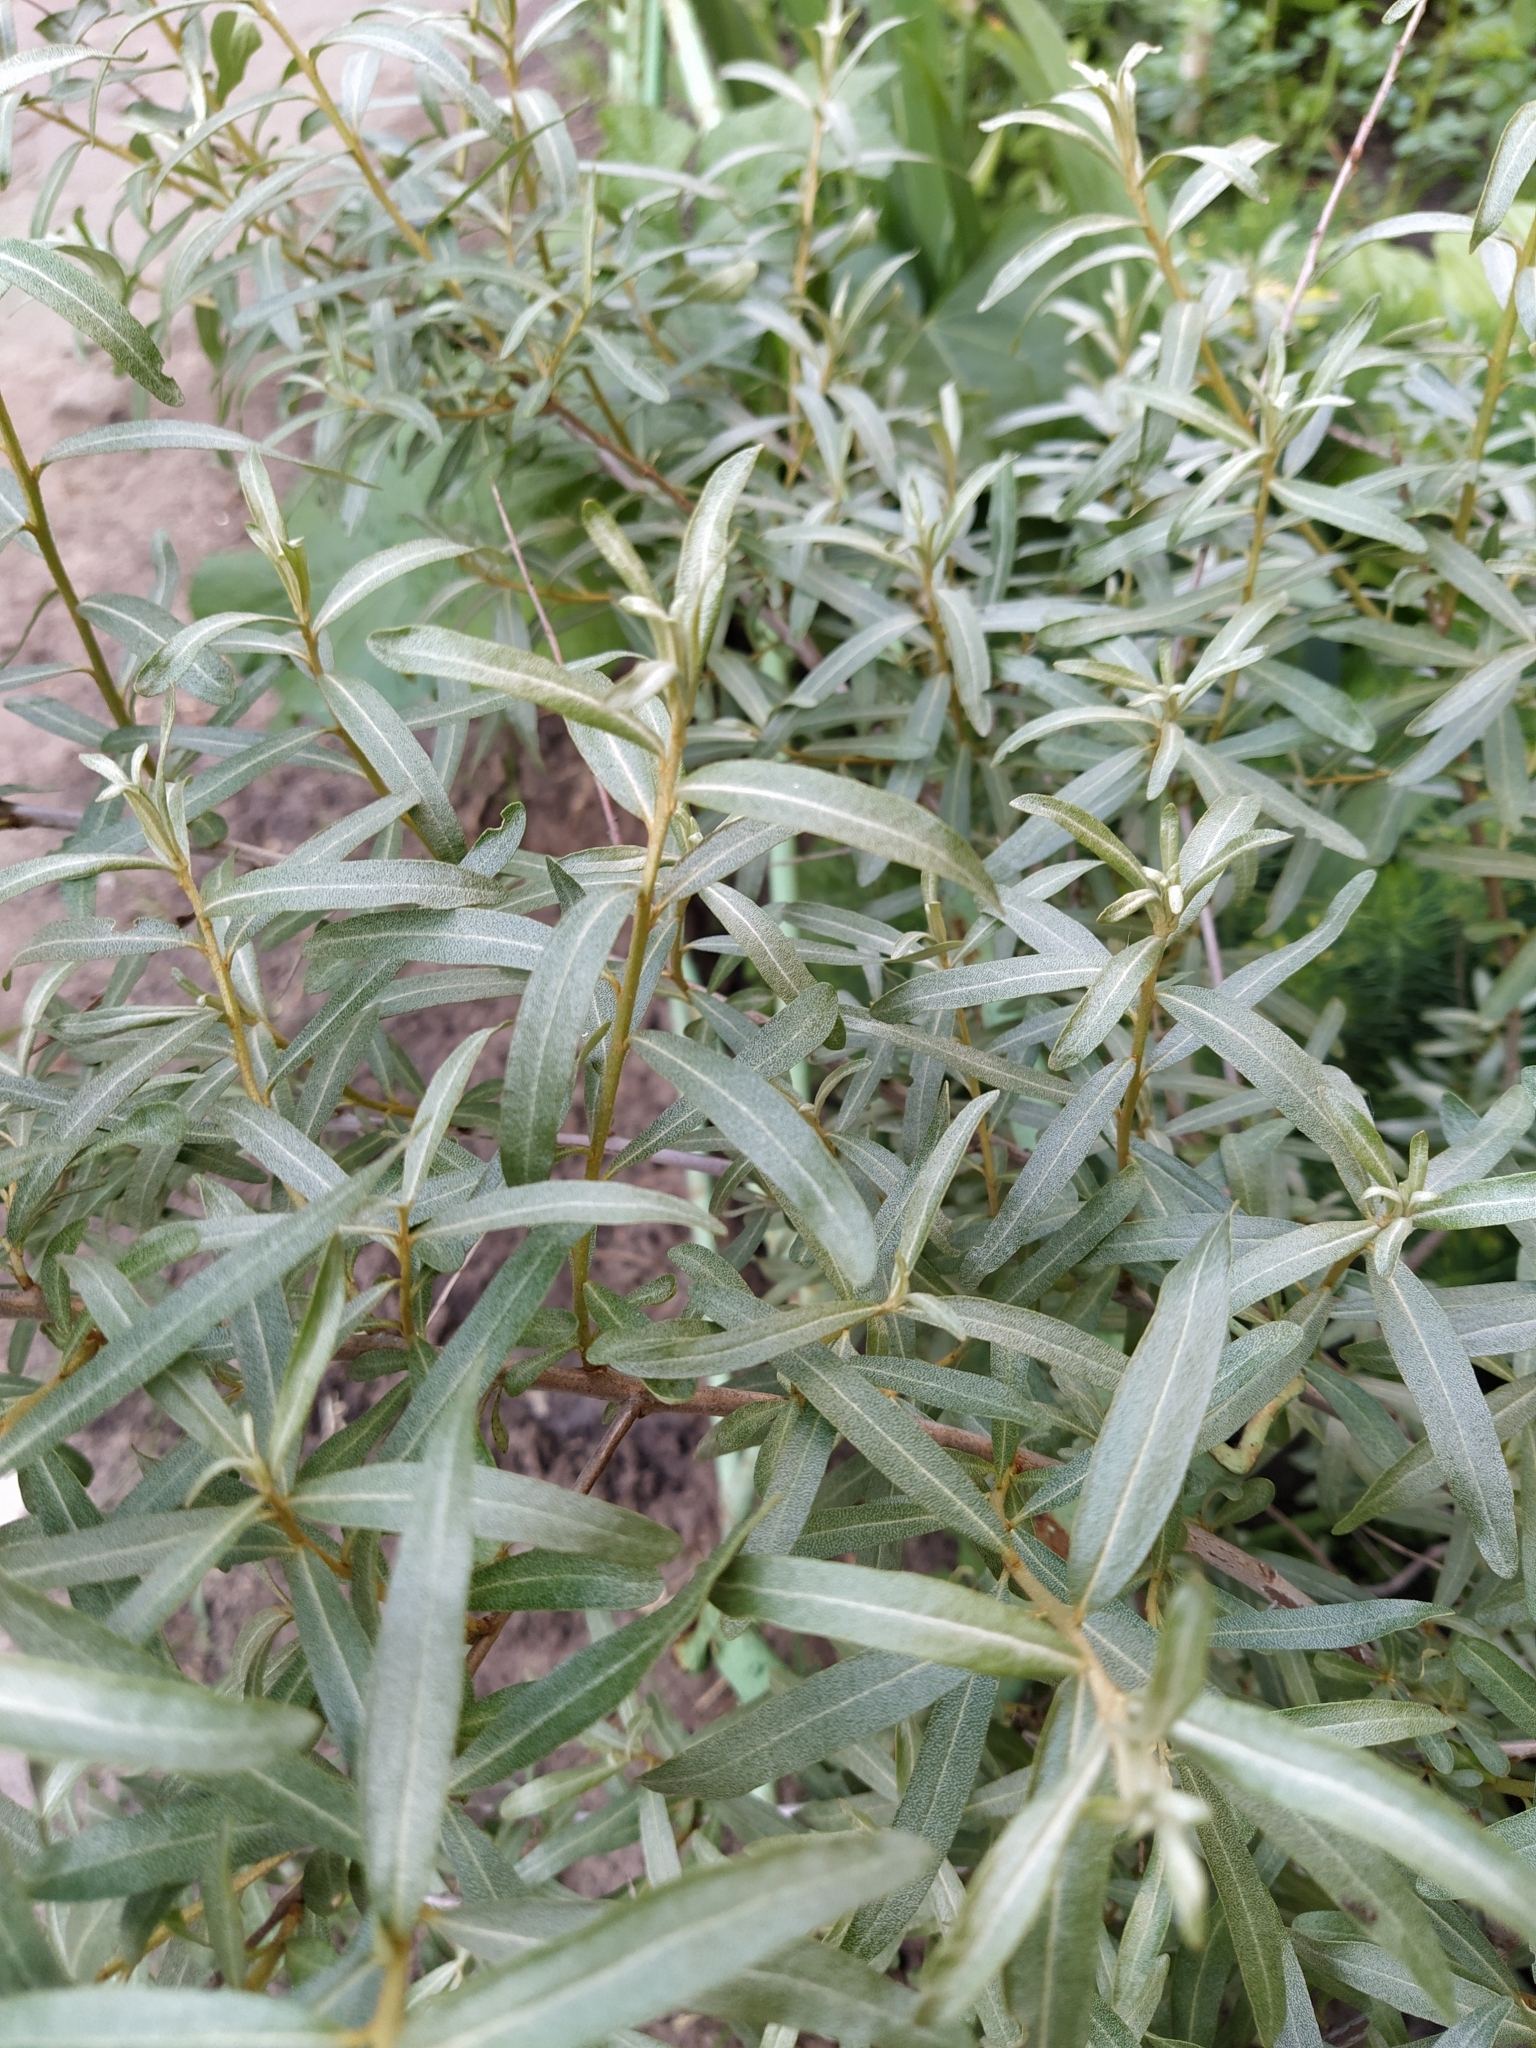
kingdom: Plantae
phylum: Tracheophyta
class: Magnoliopsida
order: Rosales
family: Elaeagnaceae
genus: Hippophae
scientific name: Hippophae rhamnoides
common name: Sea-buckthorn
